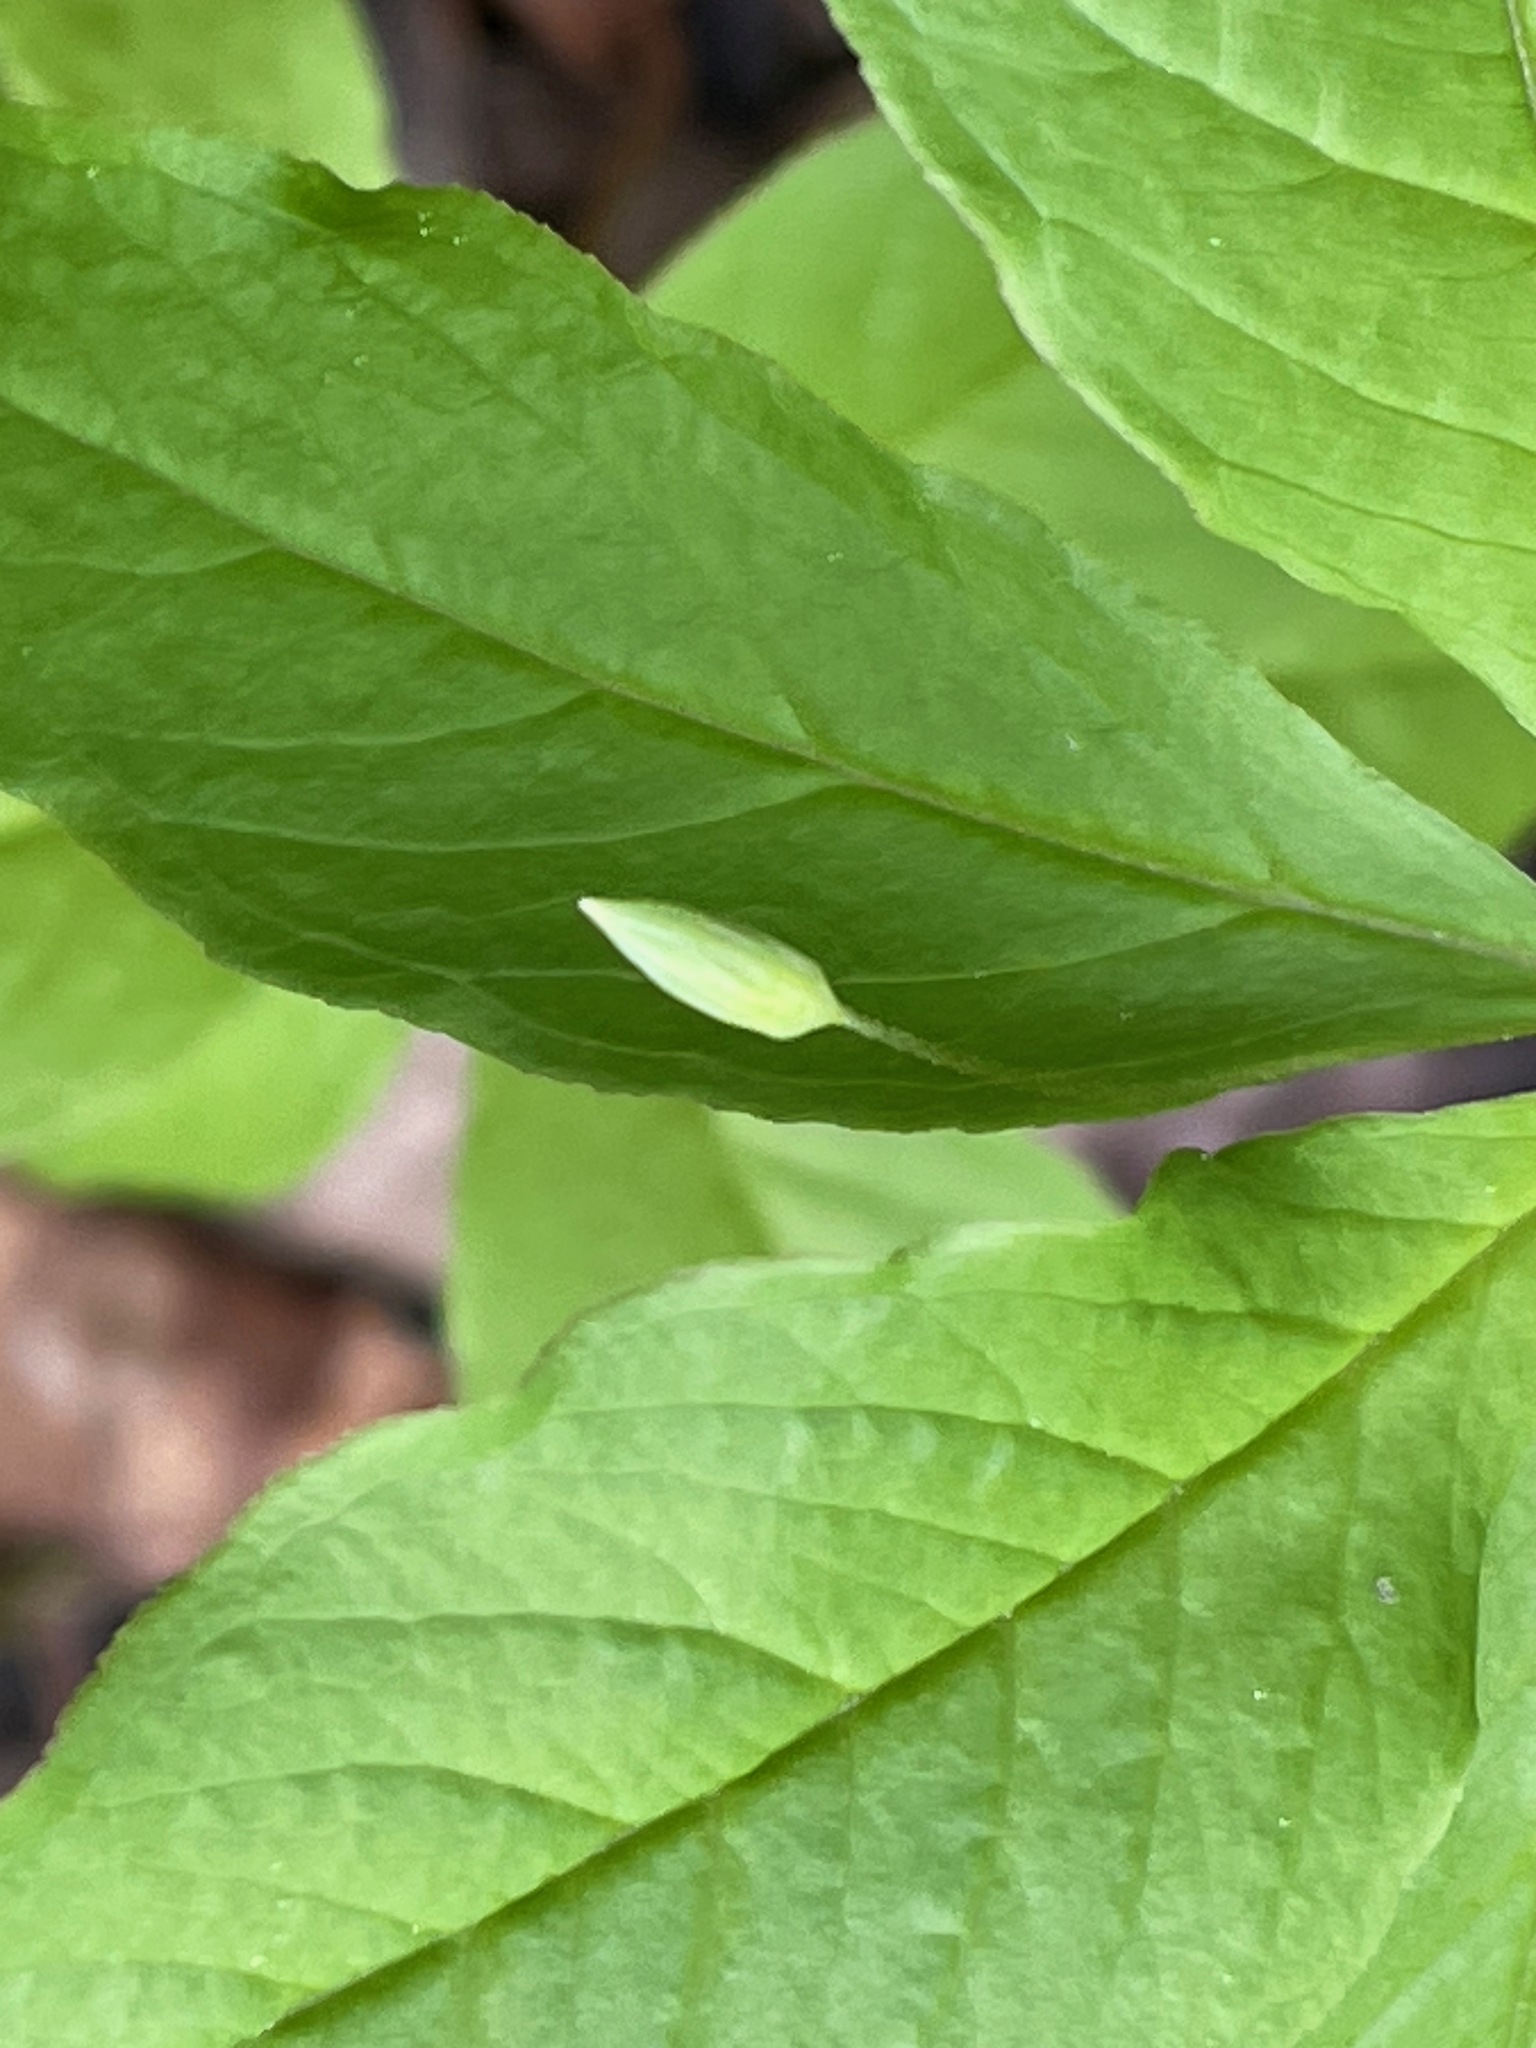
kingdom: Plantae
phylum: Tracheophyta
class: Magnoliopsida
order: Ericales
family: Primulaceae
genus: Lysimachia
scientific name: Lysimachia borealis
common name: American starflower
